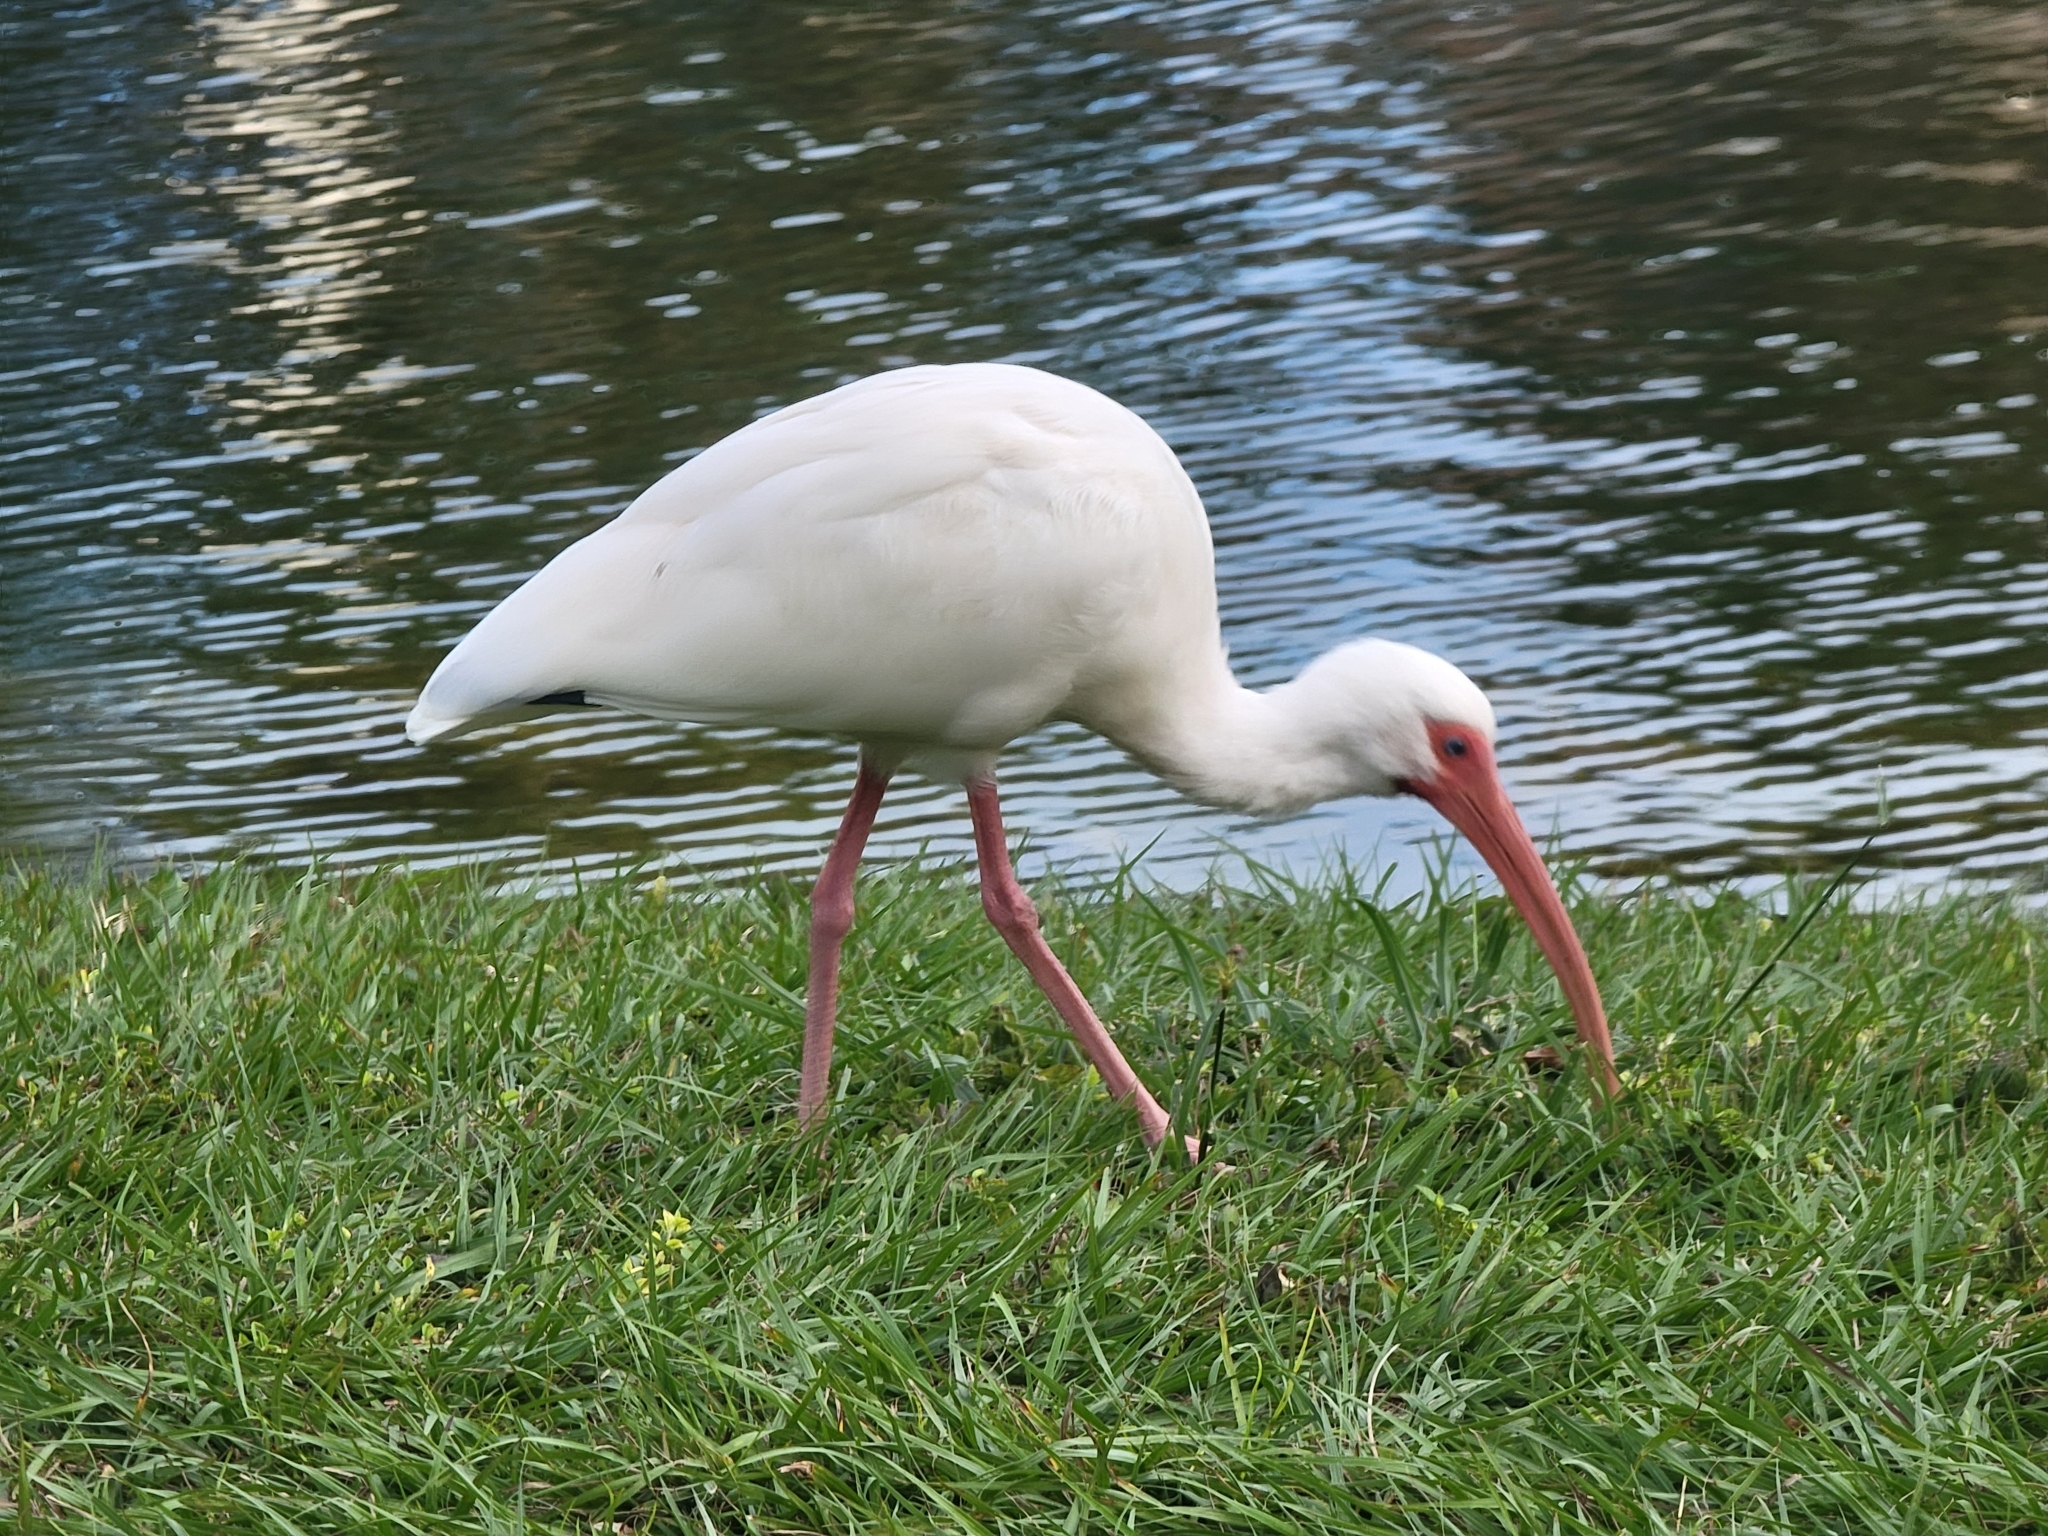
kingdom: Animalia
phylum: Chordata
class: Aves
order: Pelecaniformes
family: Threskiornithidae
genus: Eudocimus
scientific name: Eudocimus albus
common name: White ibis
